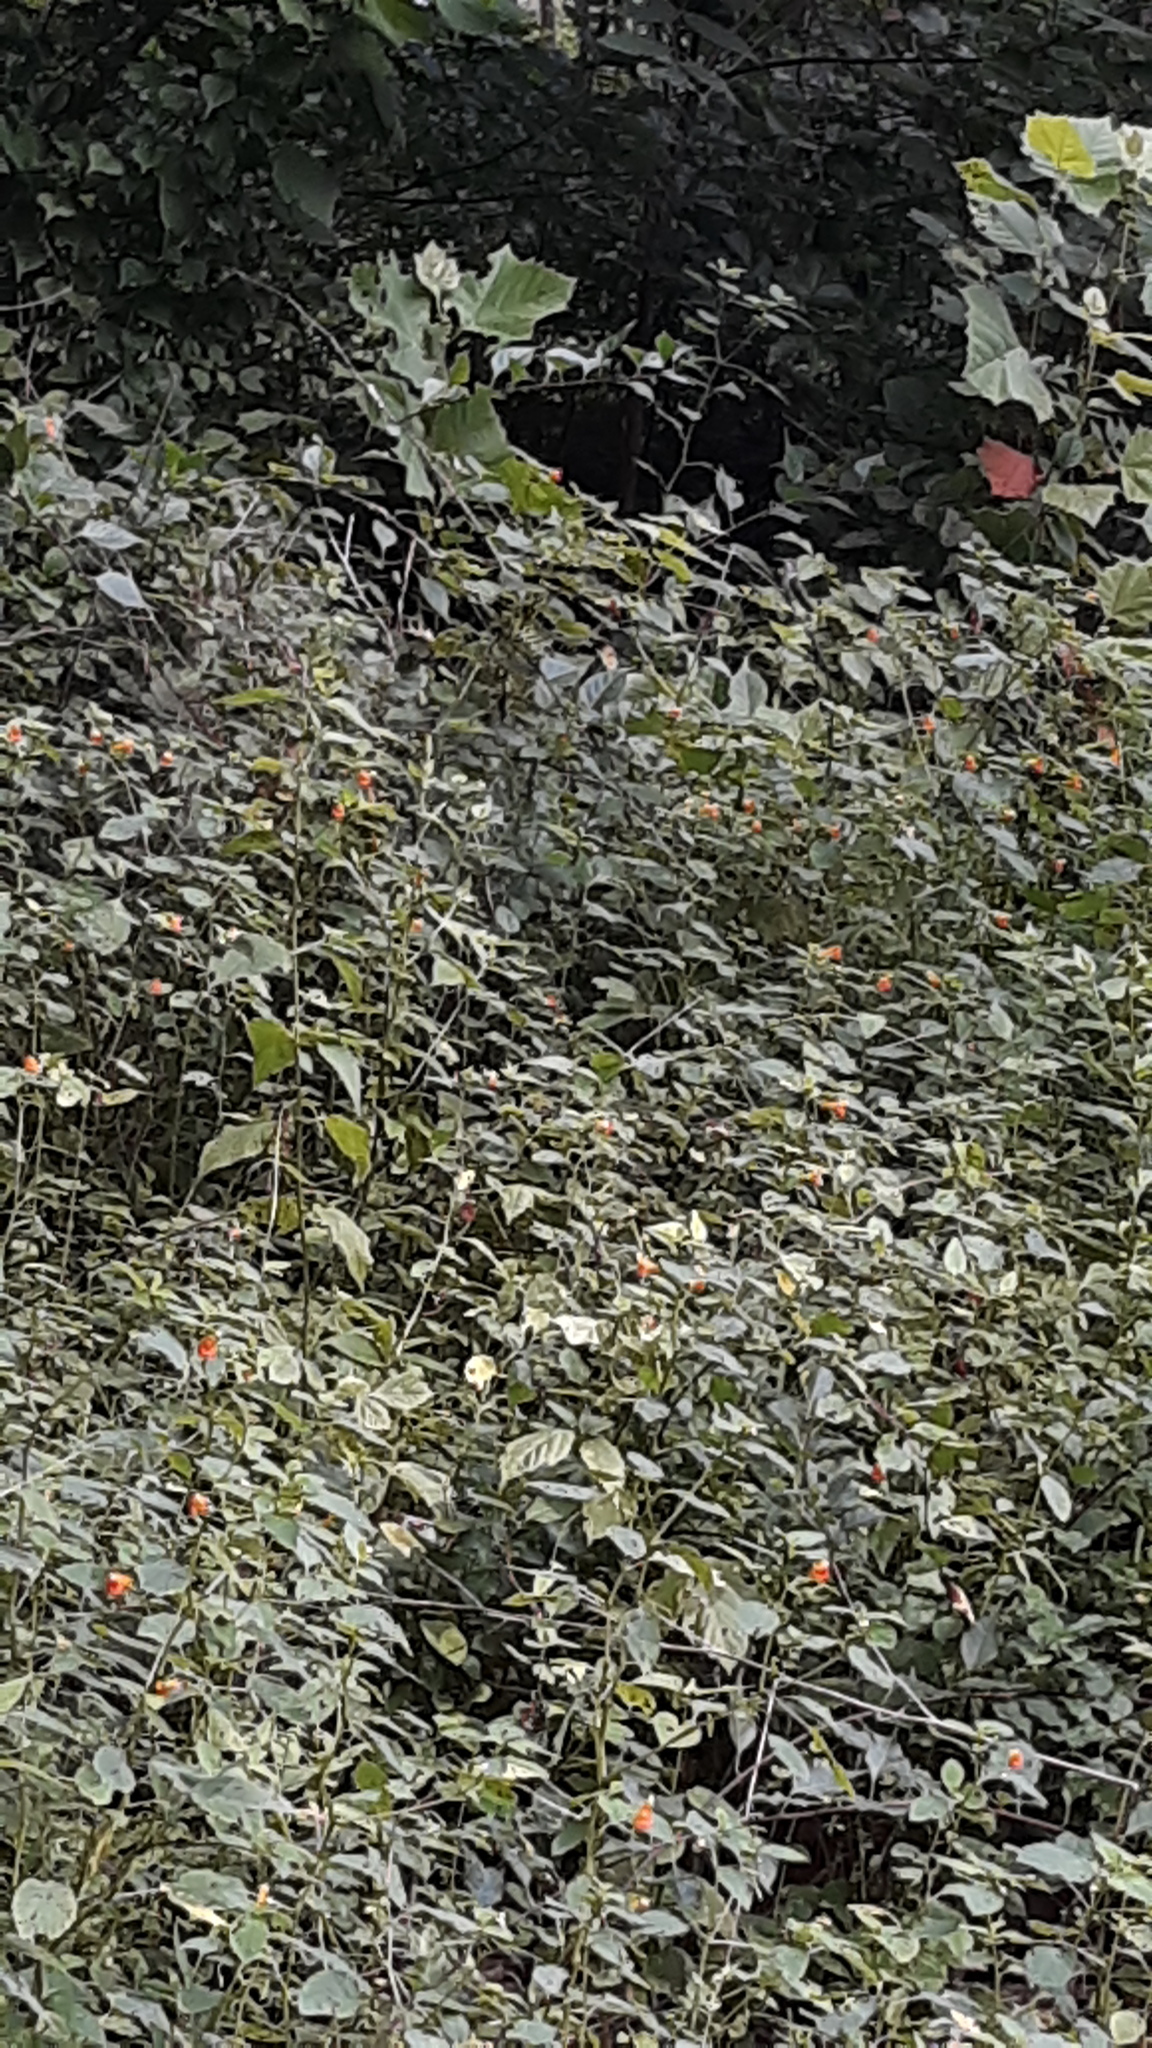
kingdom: Plantae
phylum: Tracheophyta
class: Magnoliopsida
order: Ericales
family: Balsaminaceae
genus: Impatiens
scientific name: Impatiens capensis
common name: Orange balsam
